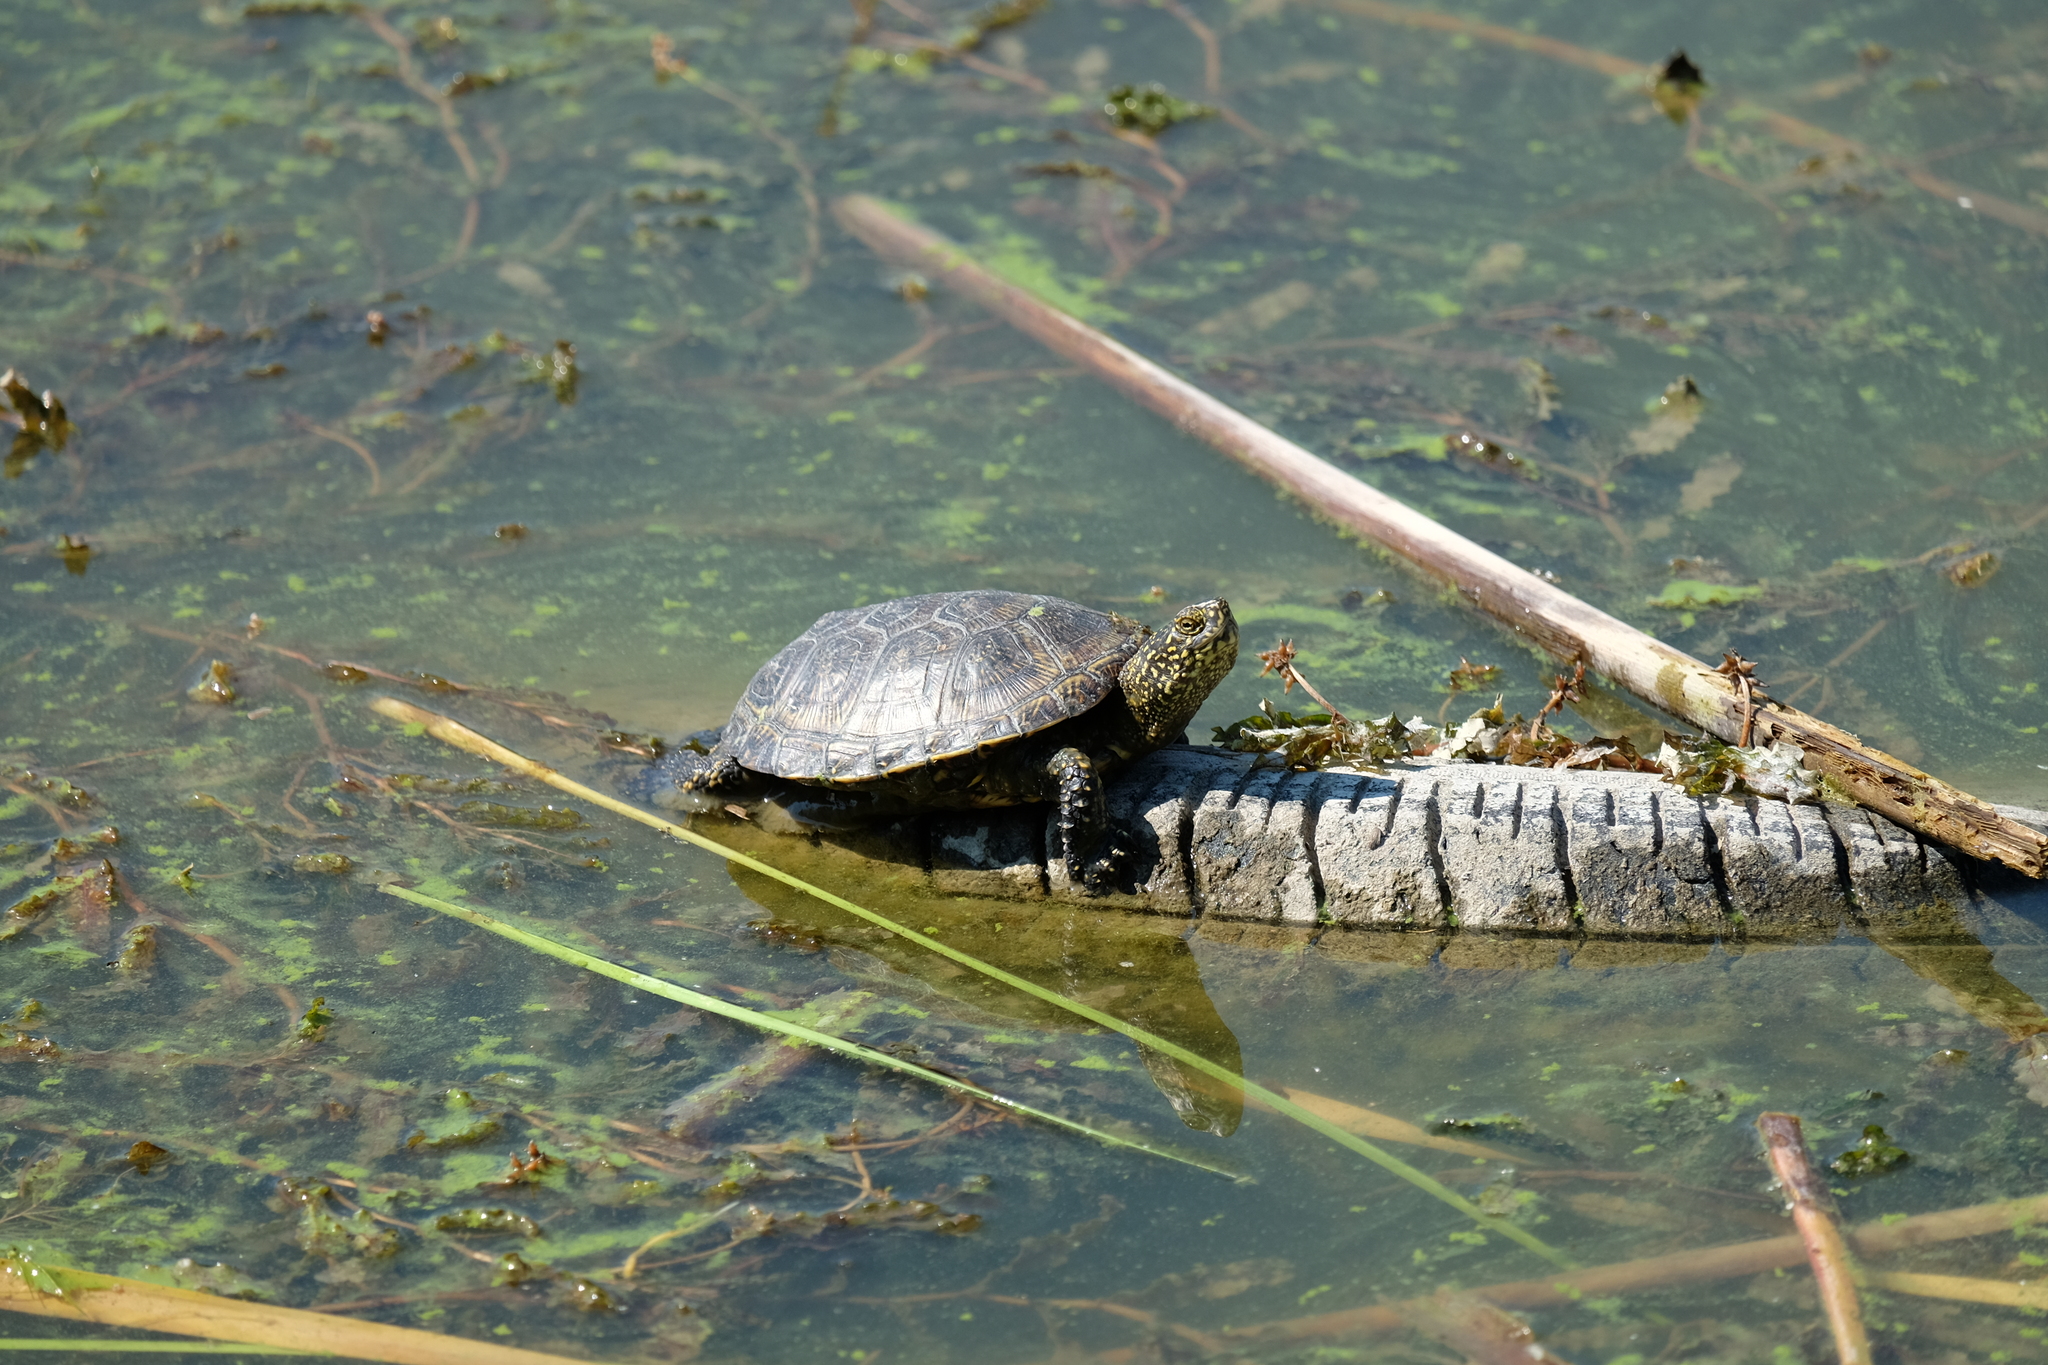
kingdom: Animalia
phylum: Chordata
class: Testudines
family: Emydidae
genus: Emys
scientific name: Emys orbicularis
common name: European pond turtle
